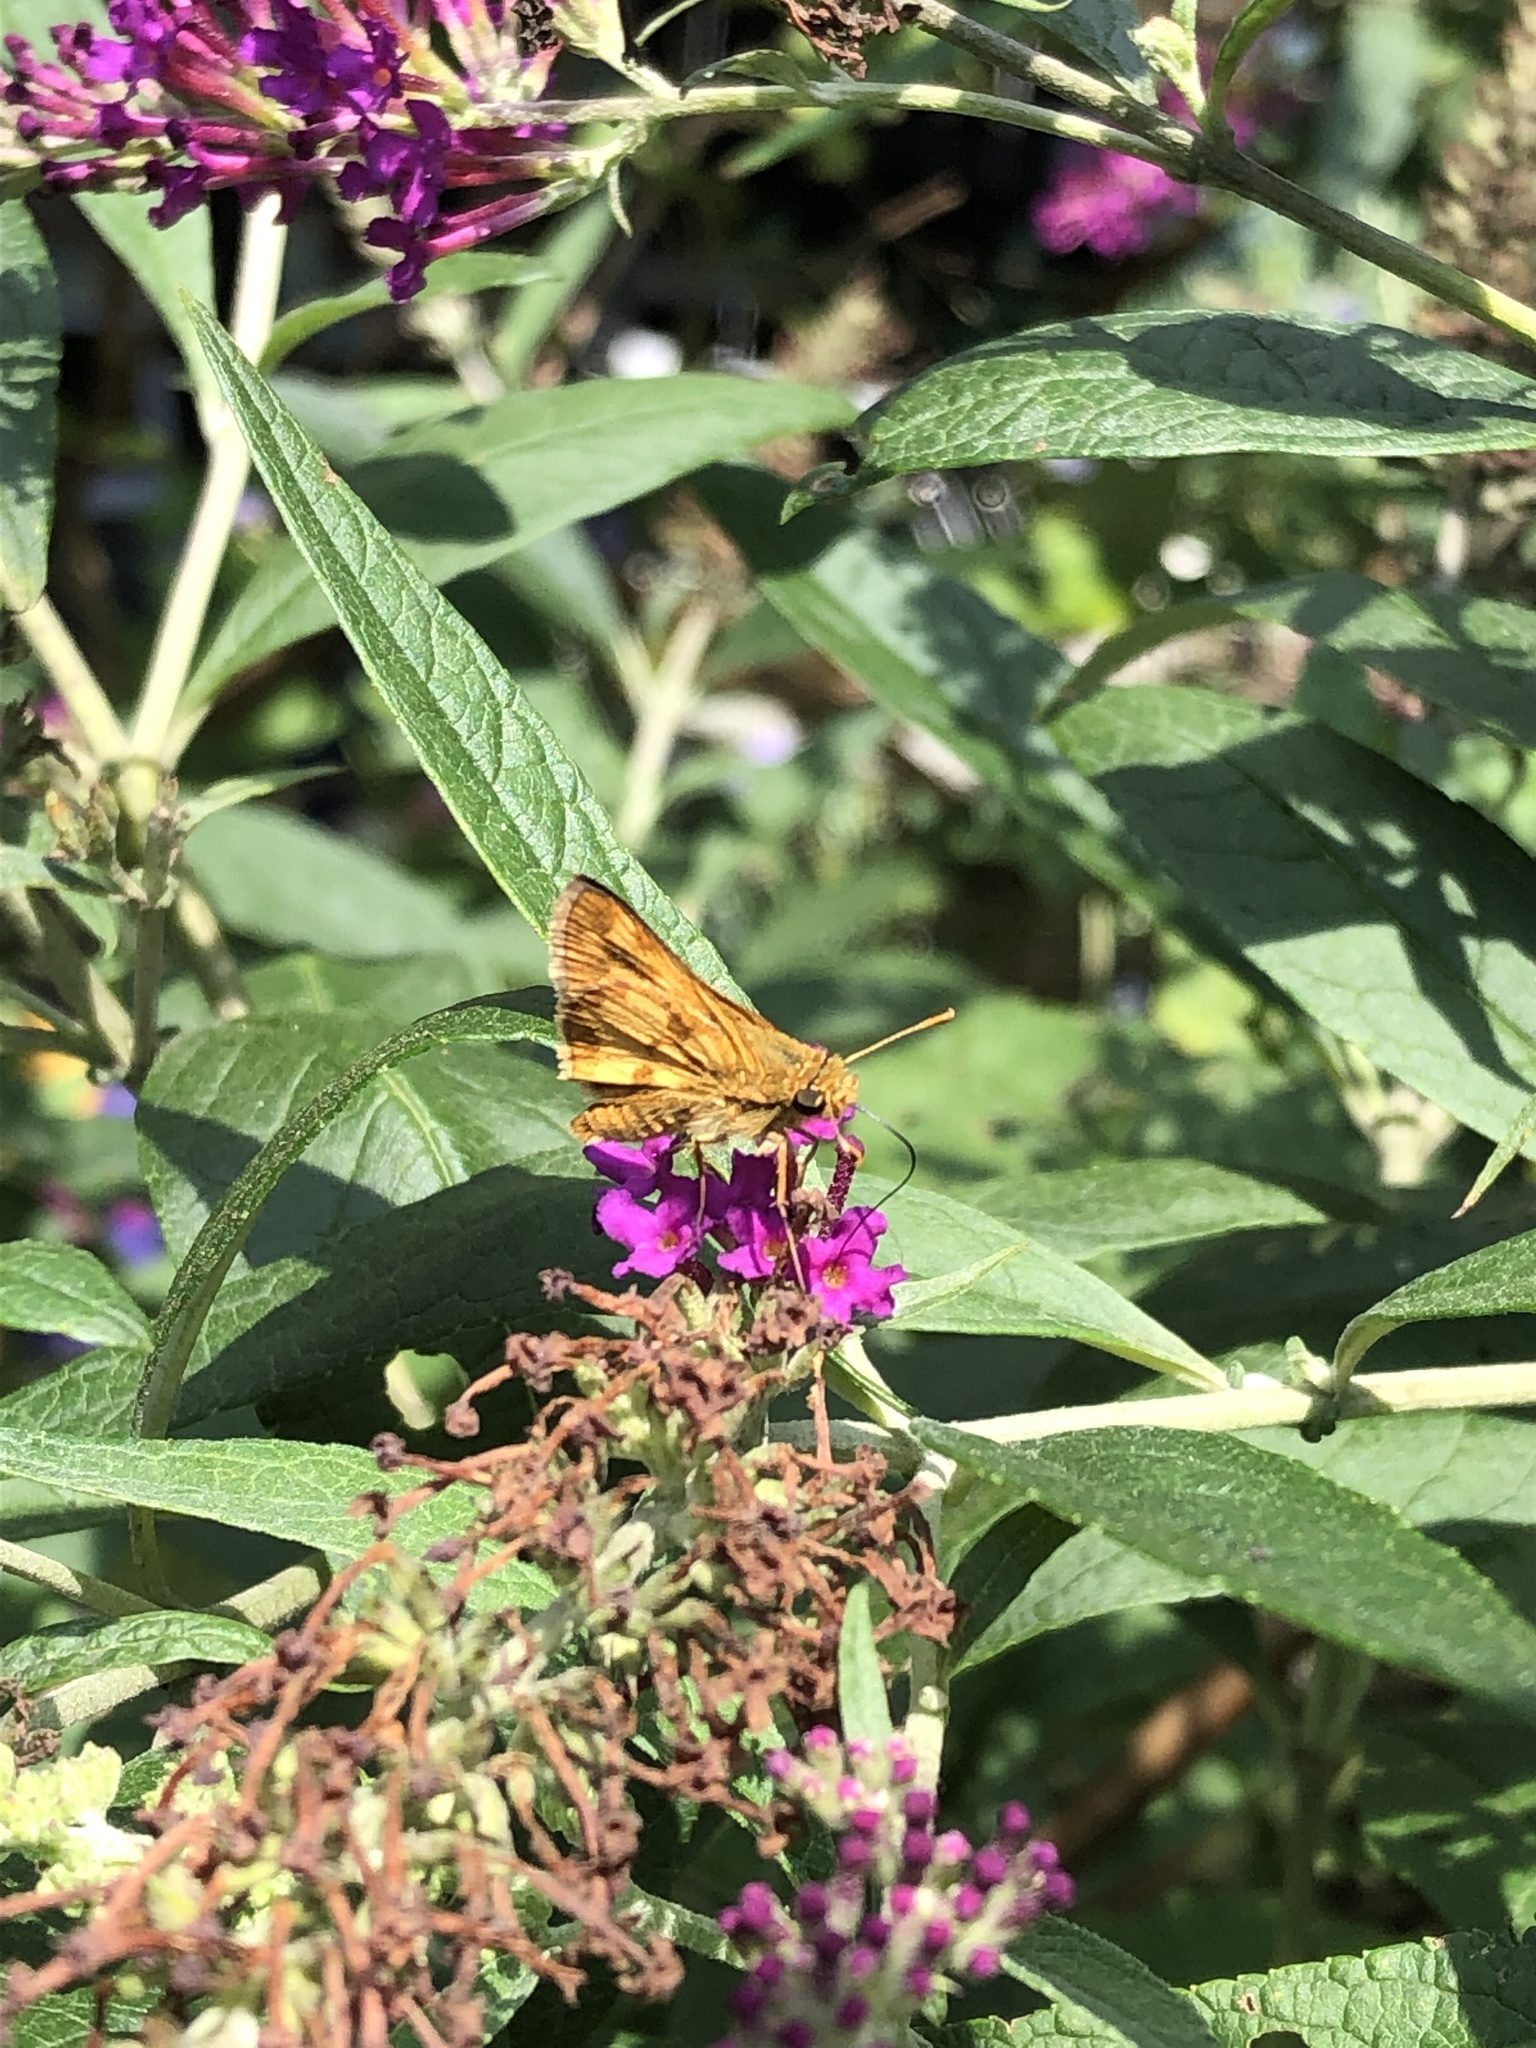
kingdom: Animalia
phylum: Arthropoda
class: Insecta
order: Lepidoptera
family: Hesperiidae
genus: Polites
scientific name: Polites coras
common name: Peck's skipper
